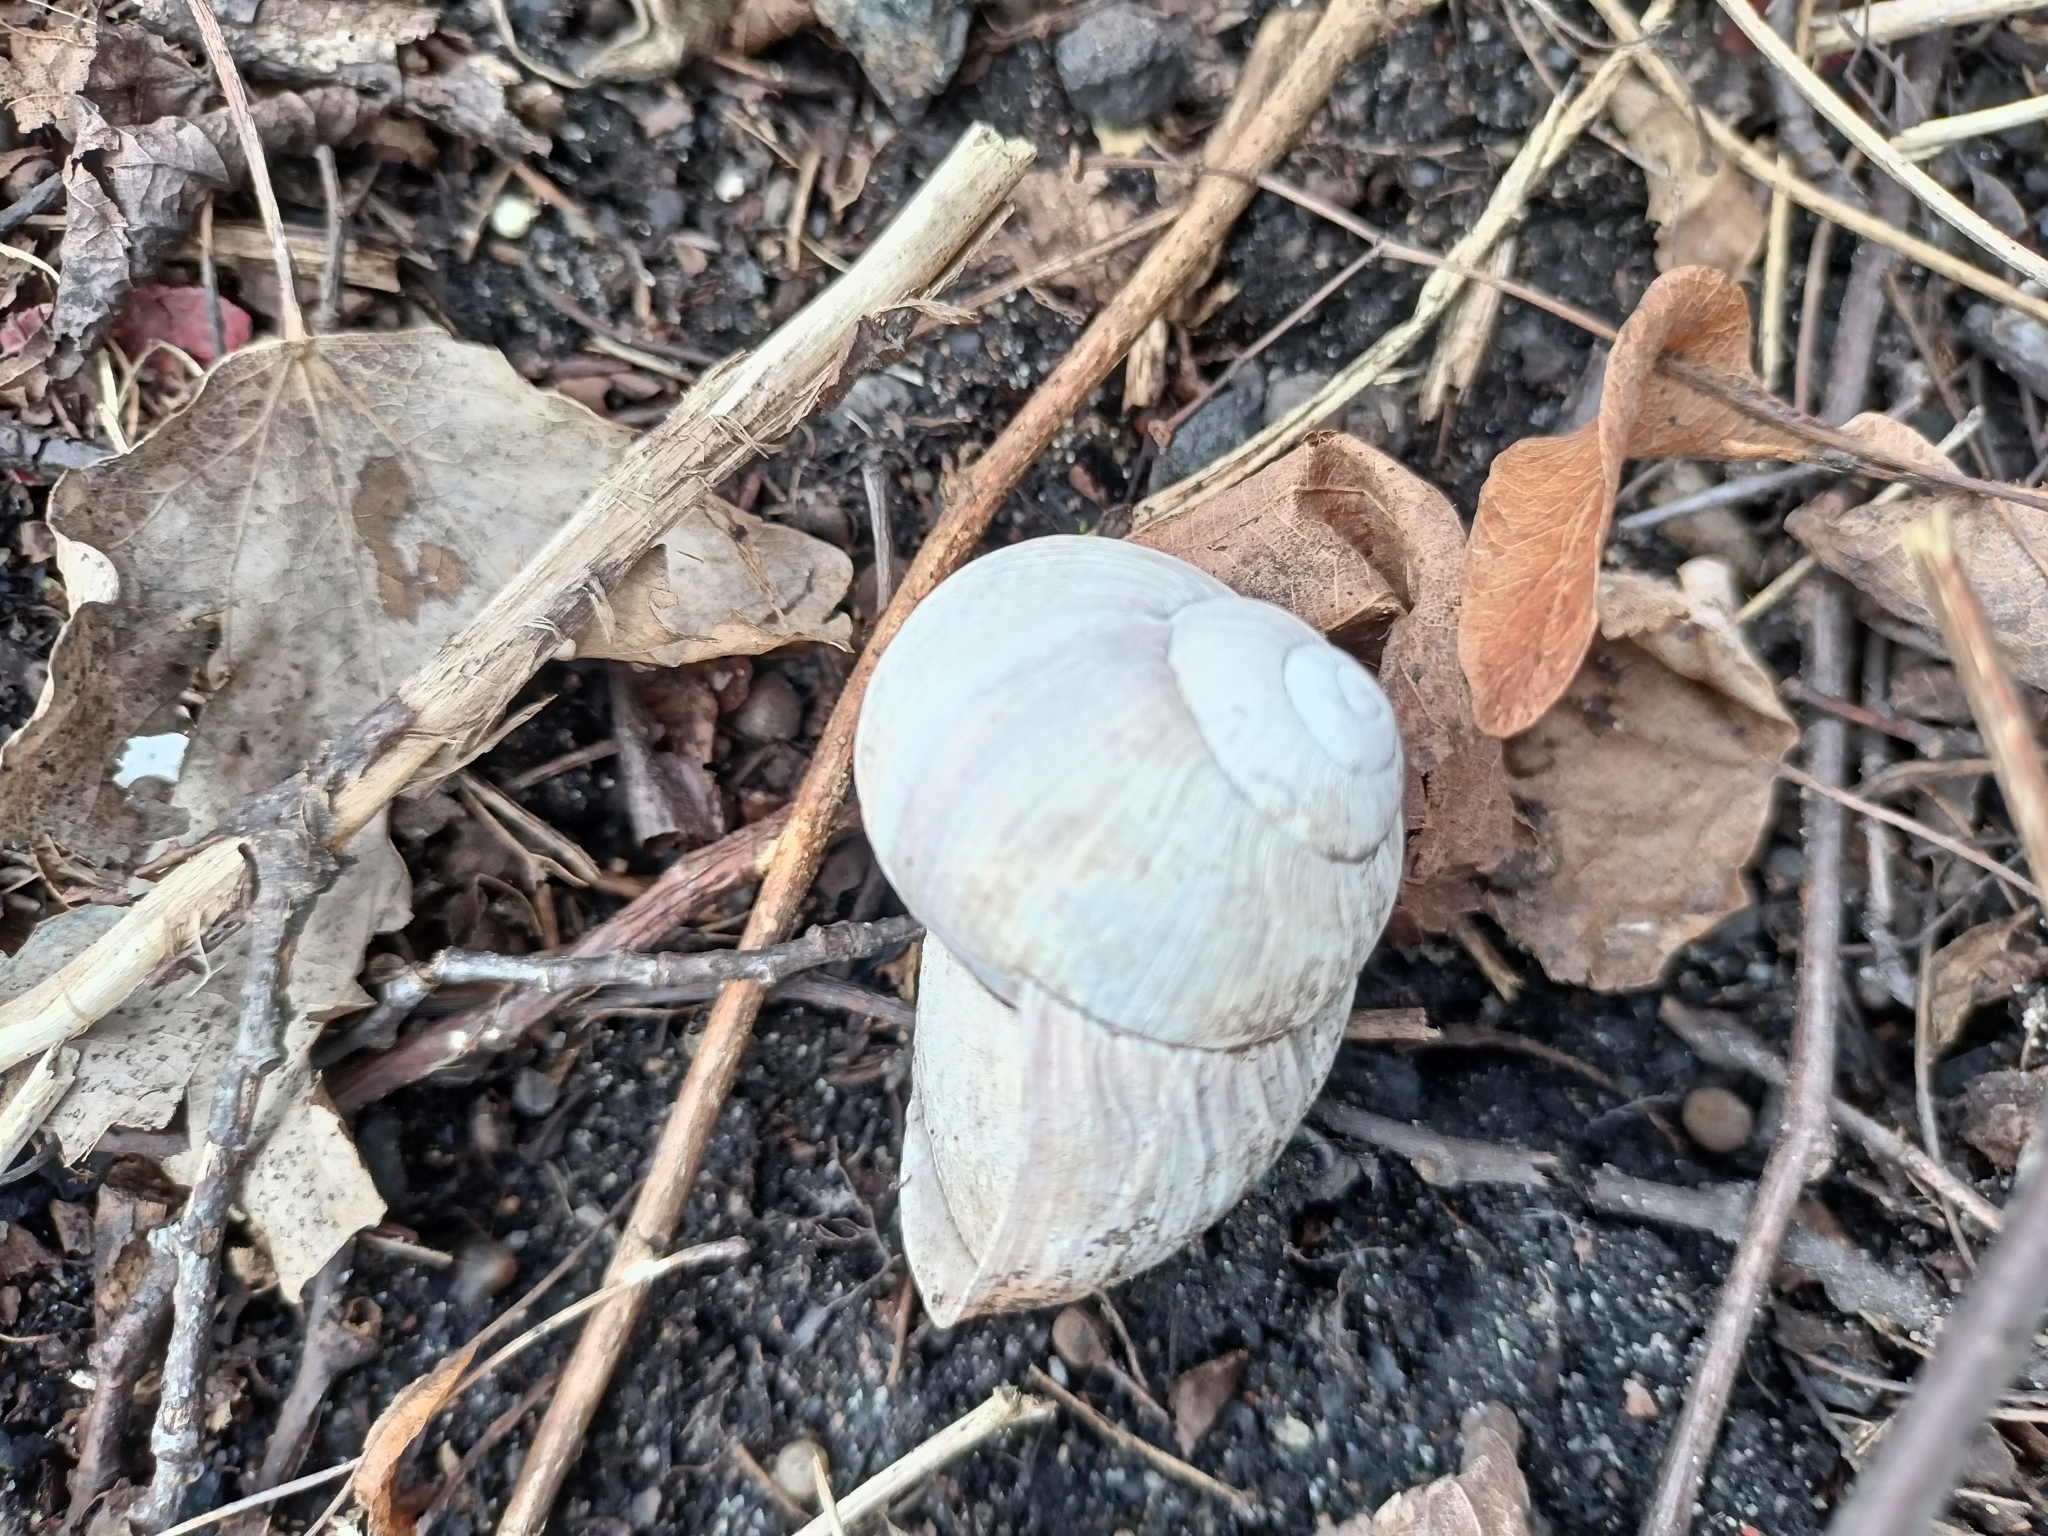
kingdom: Animalia
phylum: Mollusca
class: Gastropoda
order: Stylommatophora
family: Helicidae
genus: Helix
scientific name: Helix pomatia
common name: Roman snail
